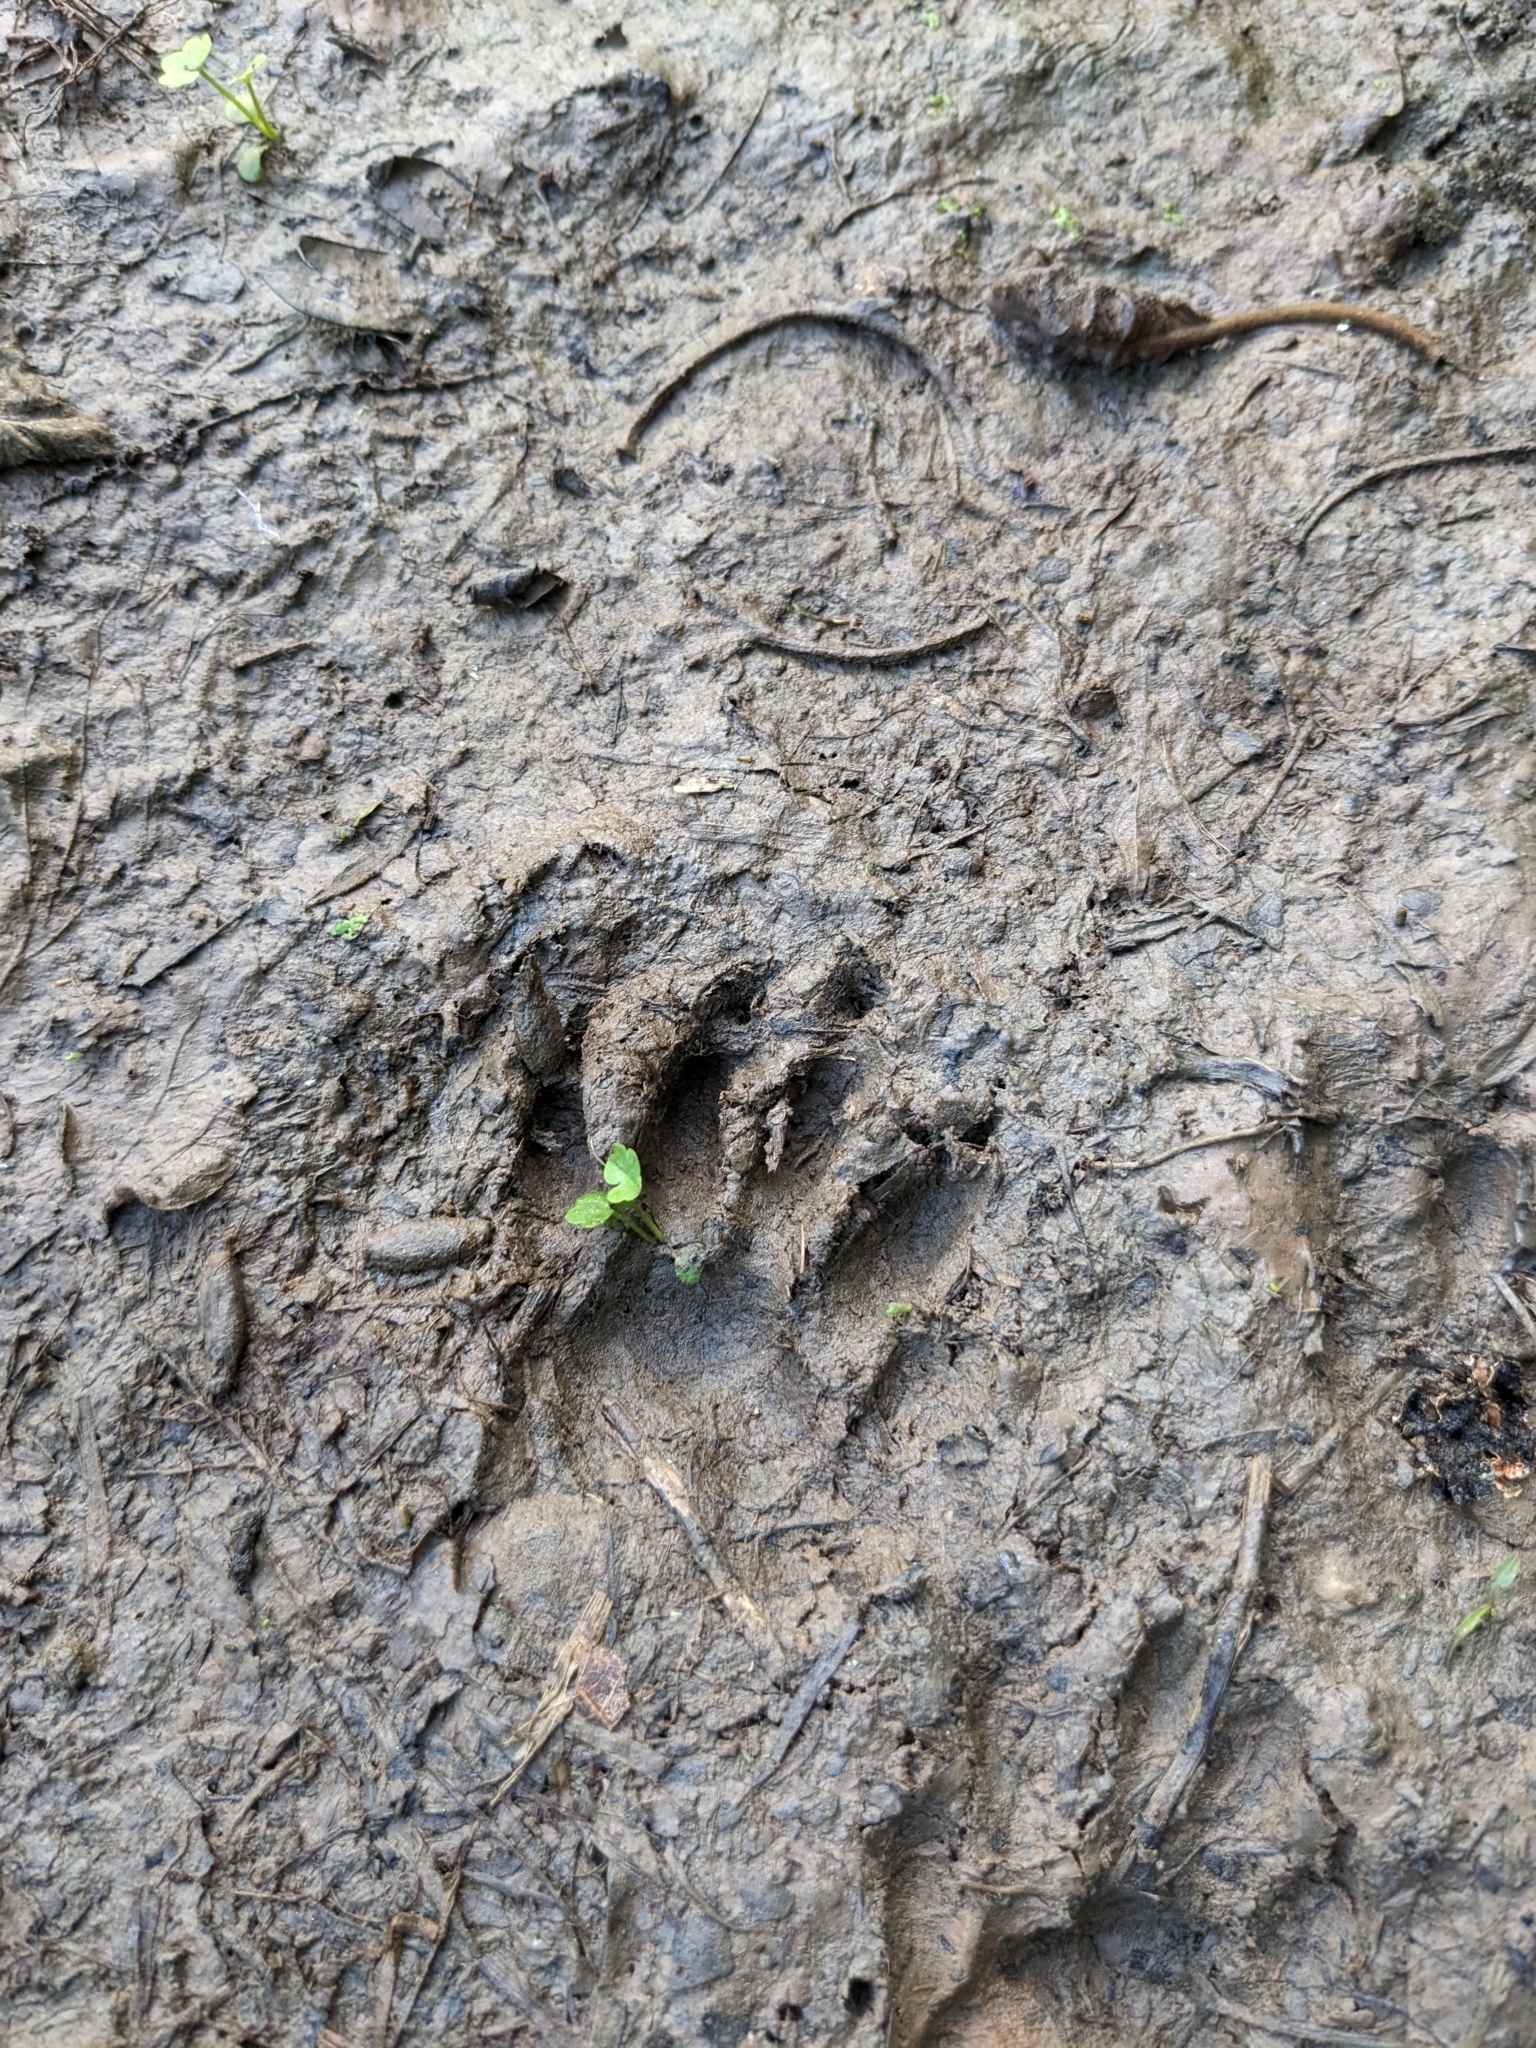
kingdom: Animalia
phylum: Chordata
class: Mammalia
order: Carnivora
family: Procyonidae
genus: Procyon
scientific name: Procyon lotor
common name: Raccoon
